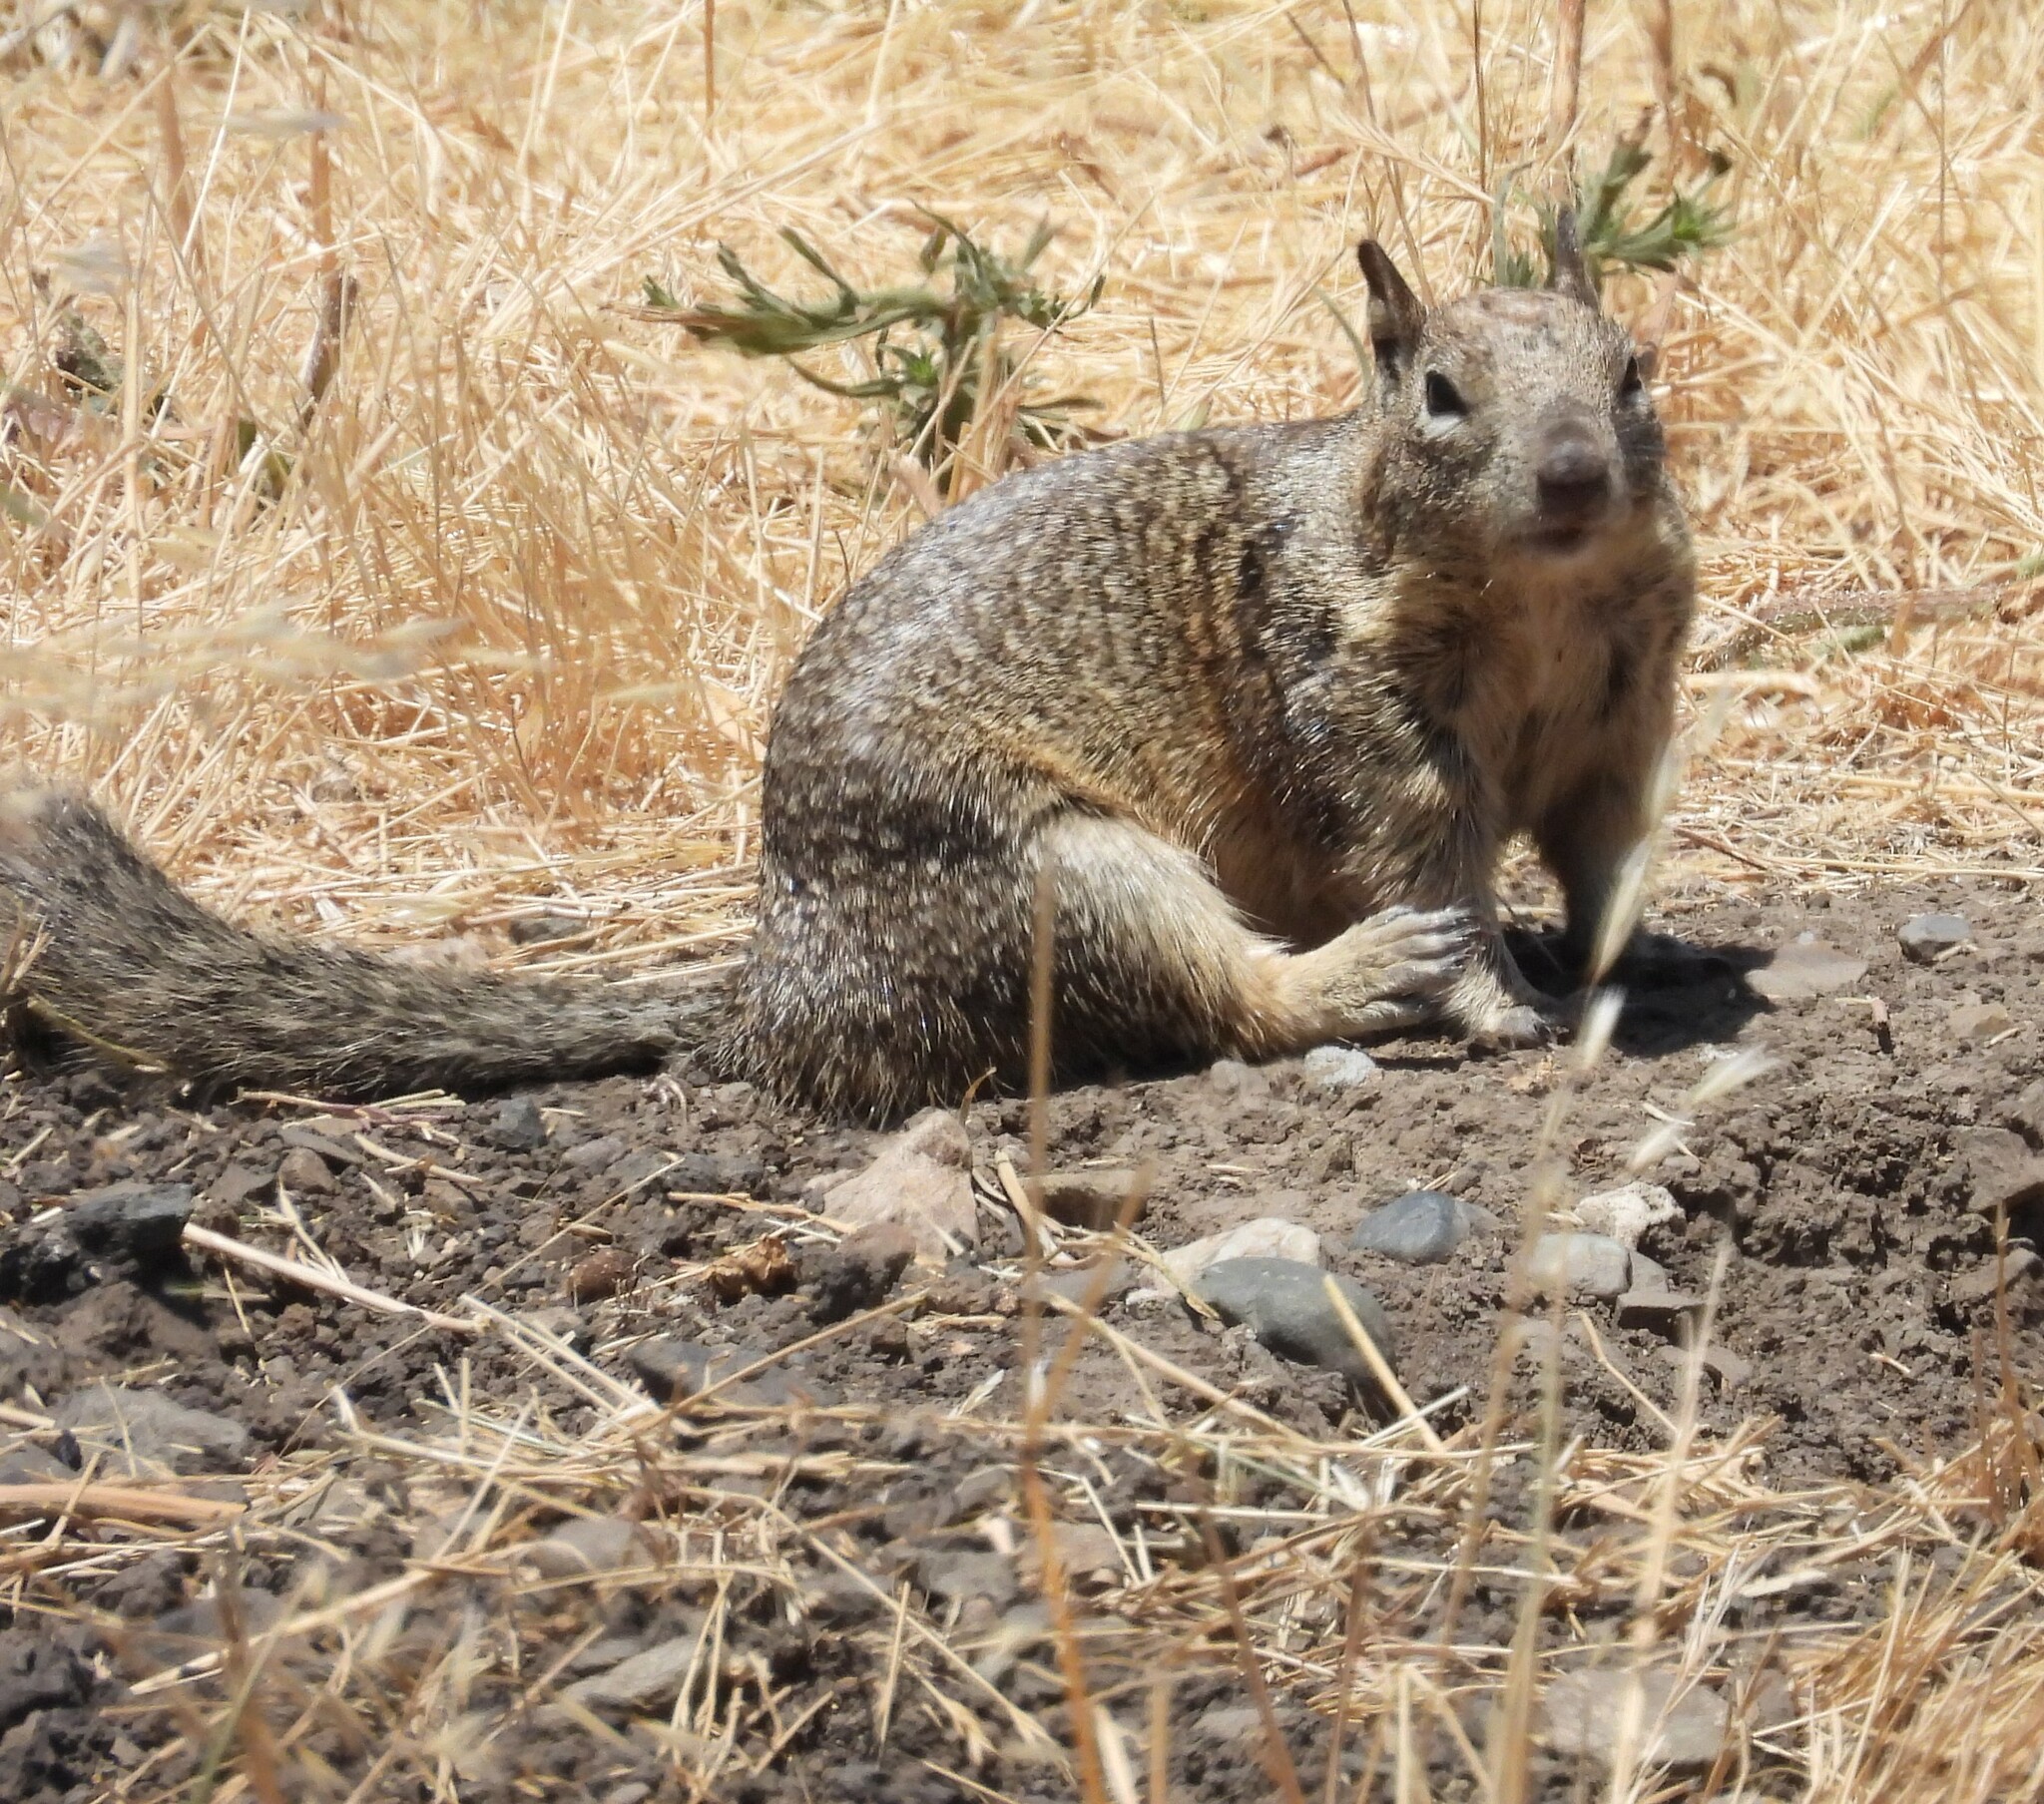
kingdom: Animalia
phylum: Chordata
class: Mammalia
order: Rodentia
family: Sciuridae
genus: Otospermophilus
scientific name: Otospermophilus beecheyi
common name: California ground squirrel
